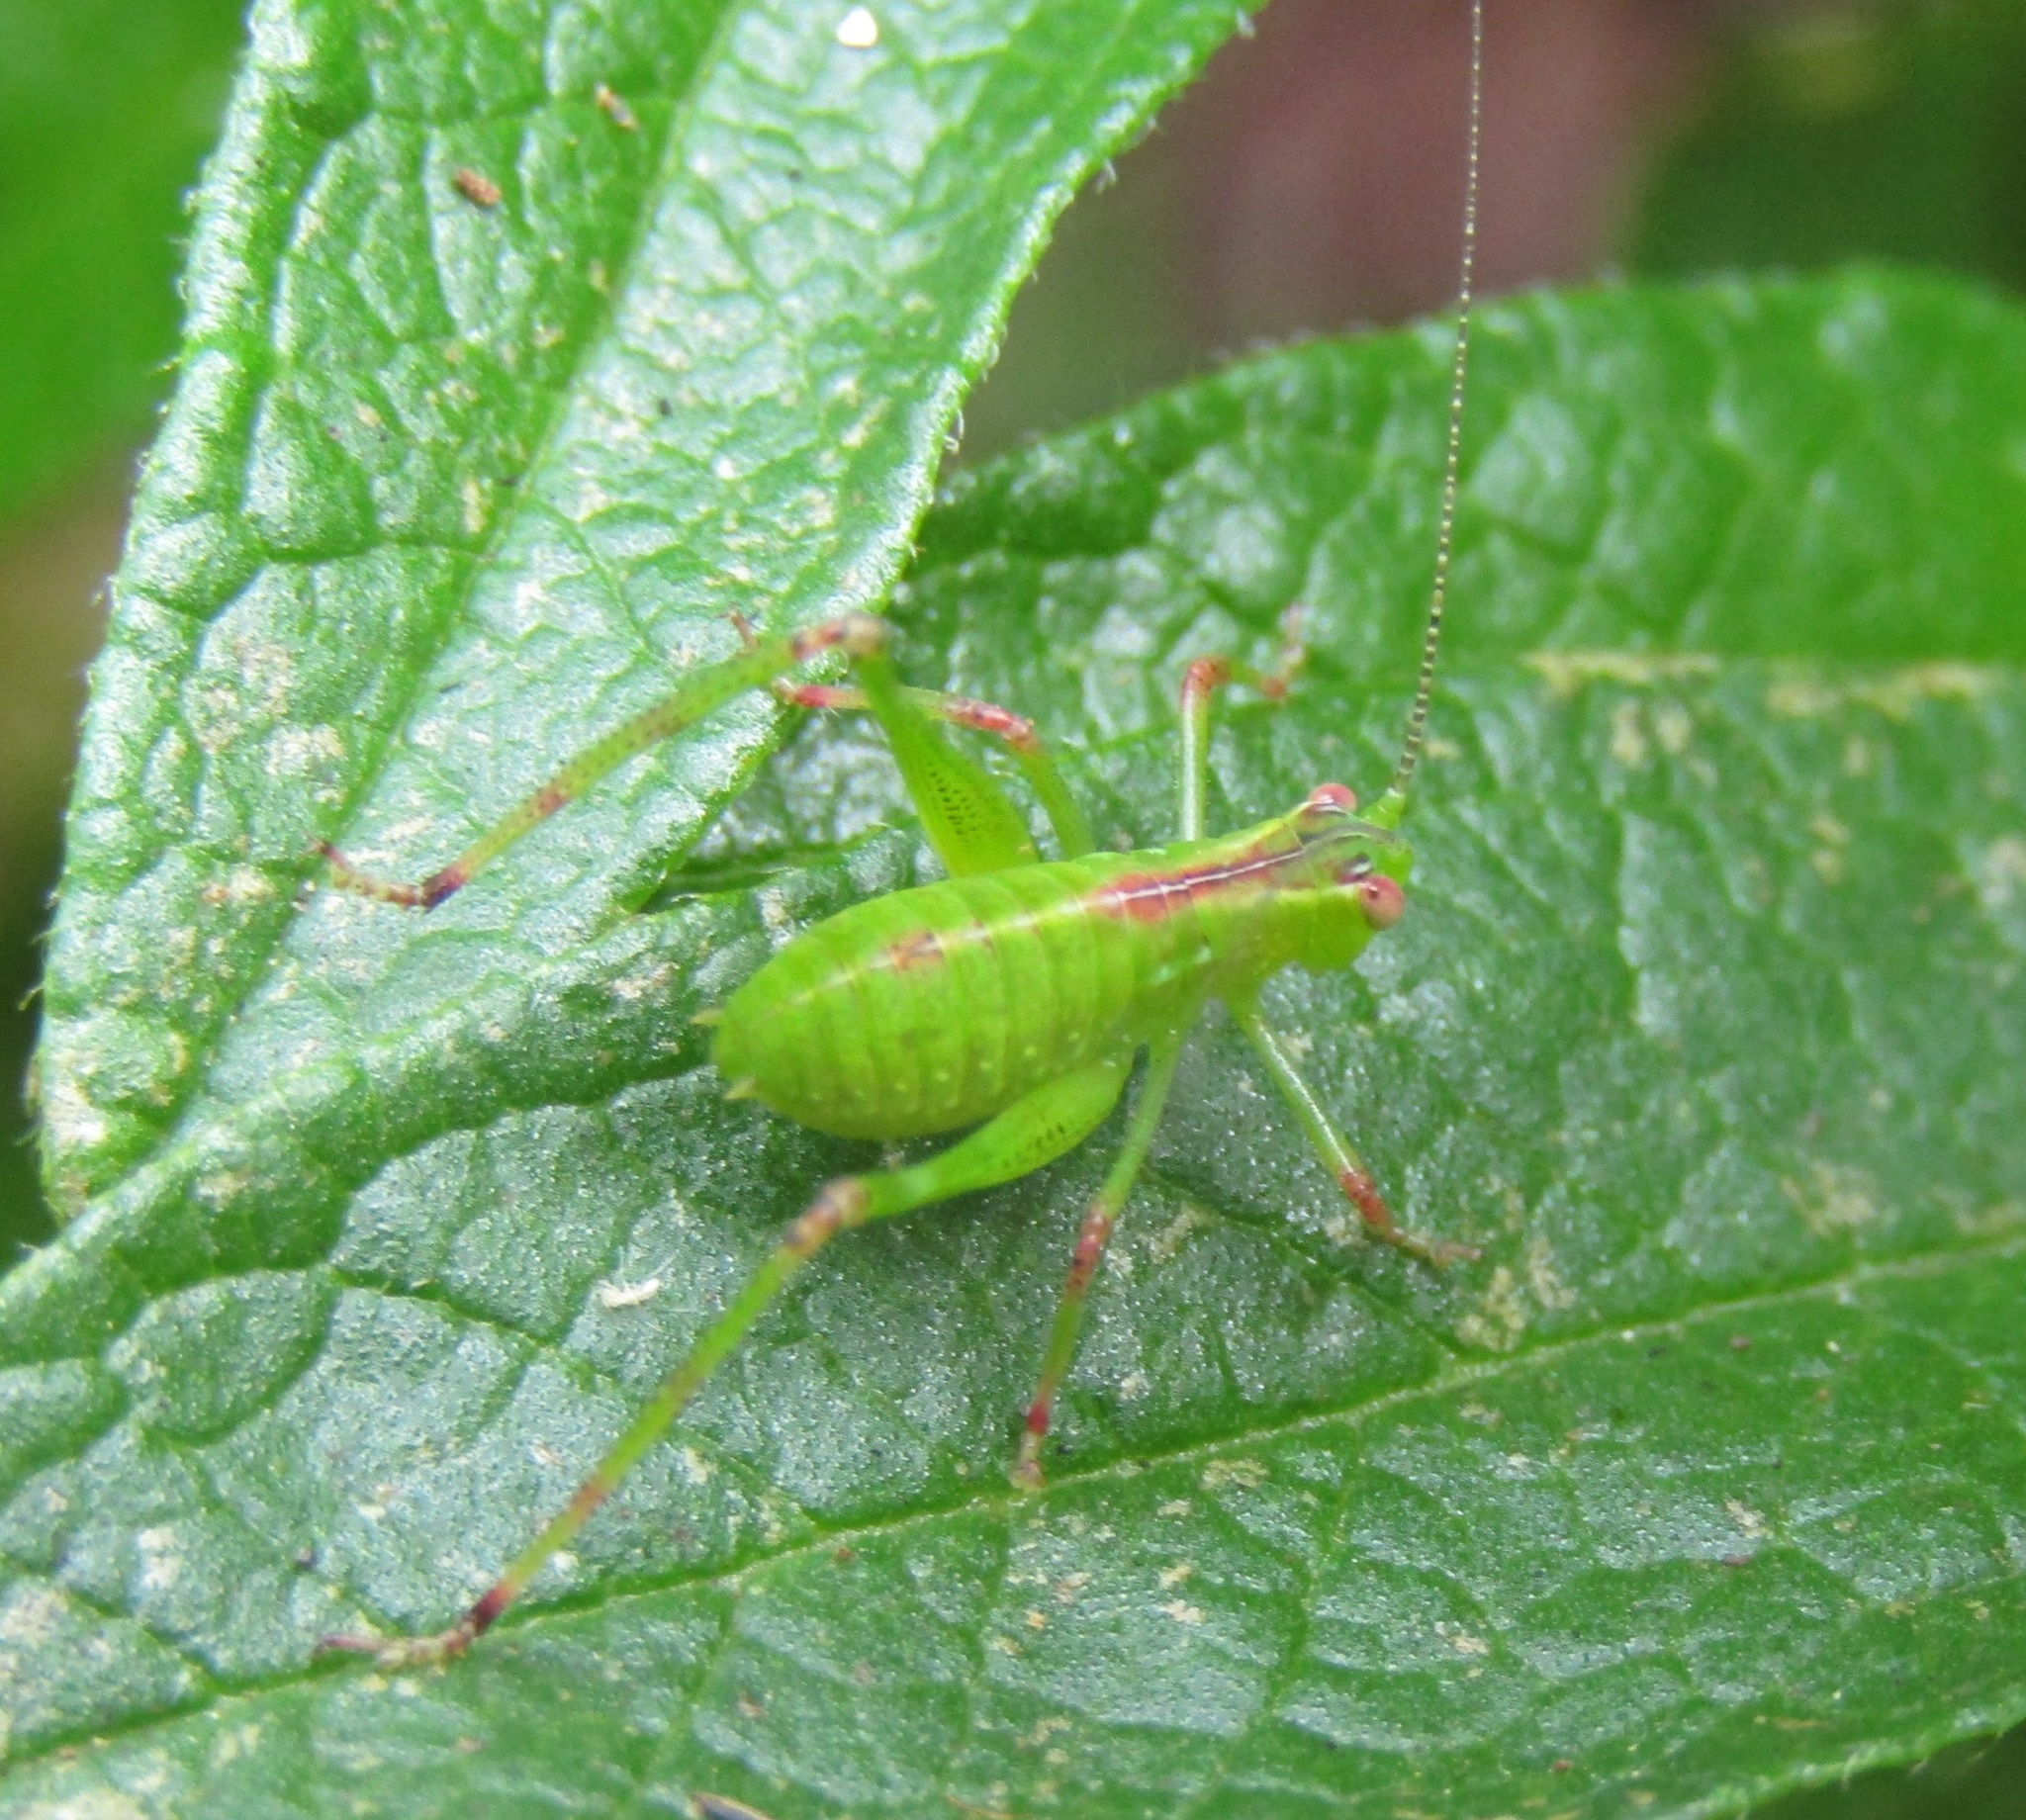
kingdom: Animalia
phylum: Arthropoda
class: Insecta
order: Orthoptera
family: Tettigoniidae
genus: Caedicia
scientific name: Caedicia simplex
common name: Common garden katydid
